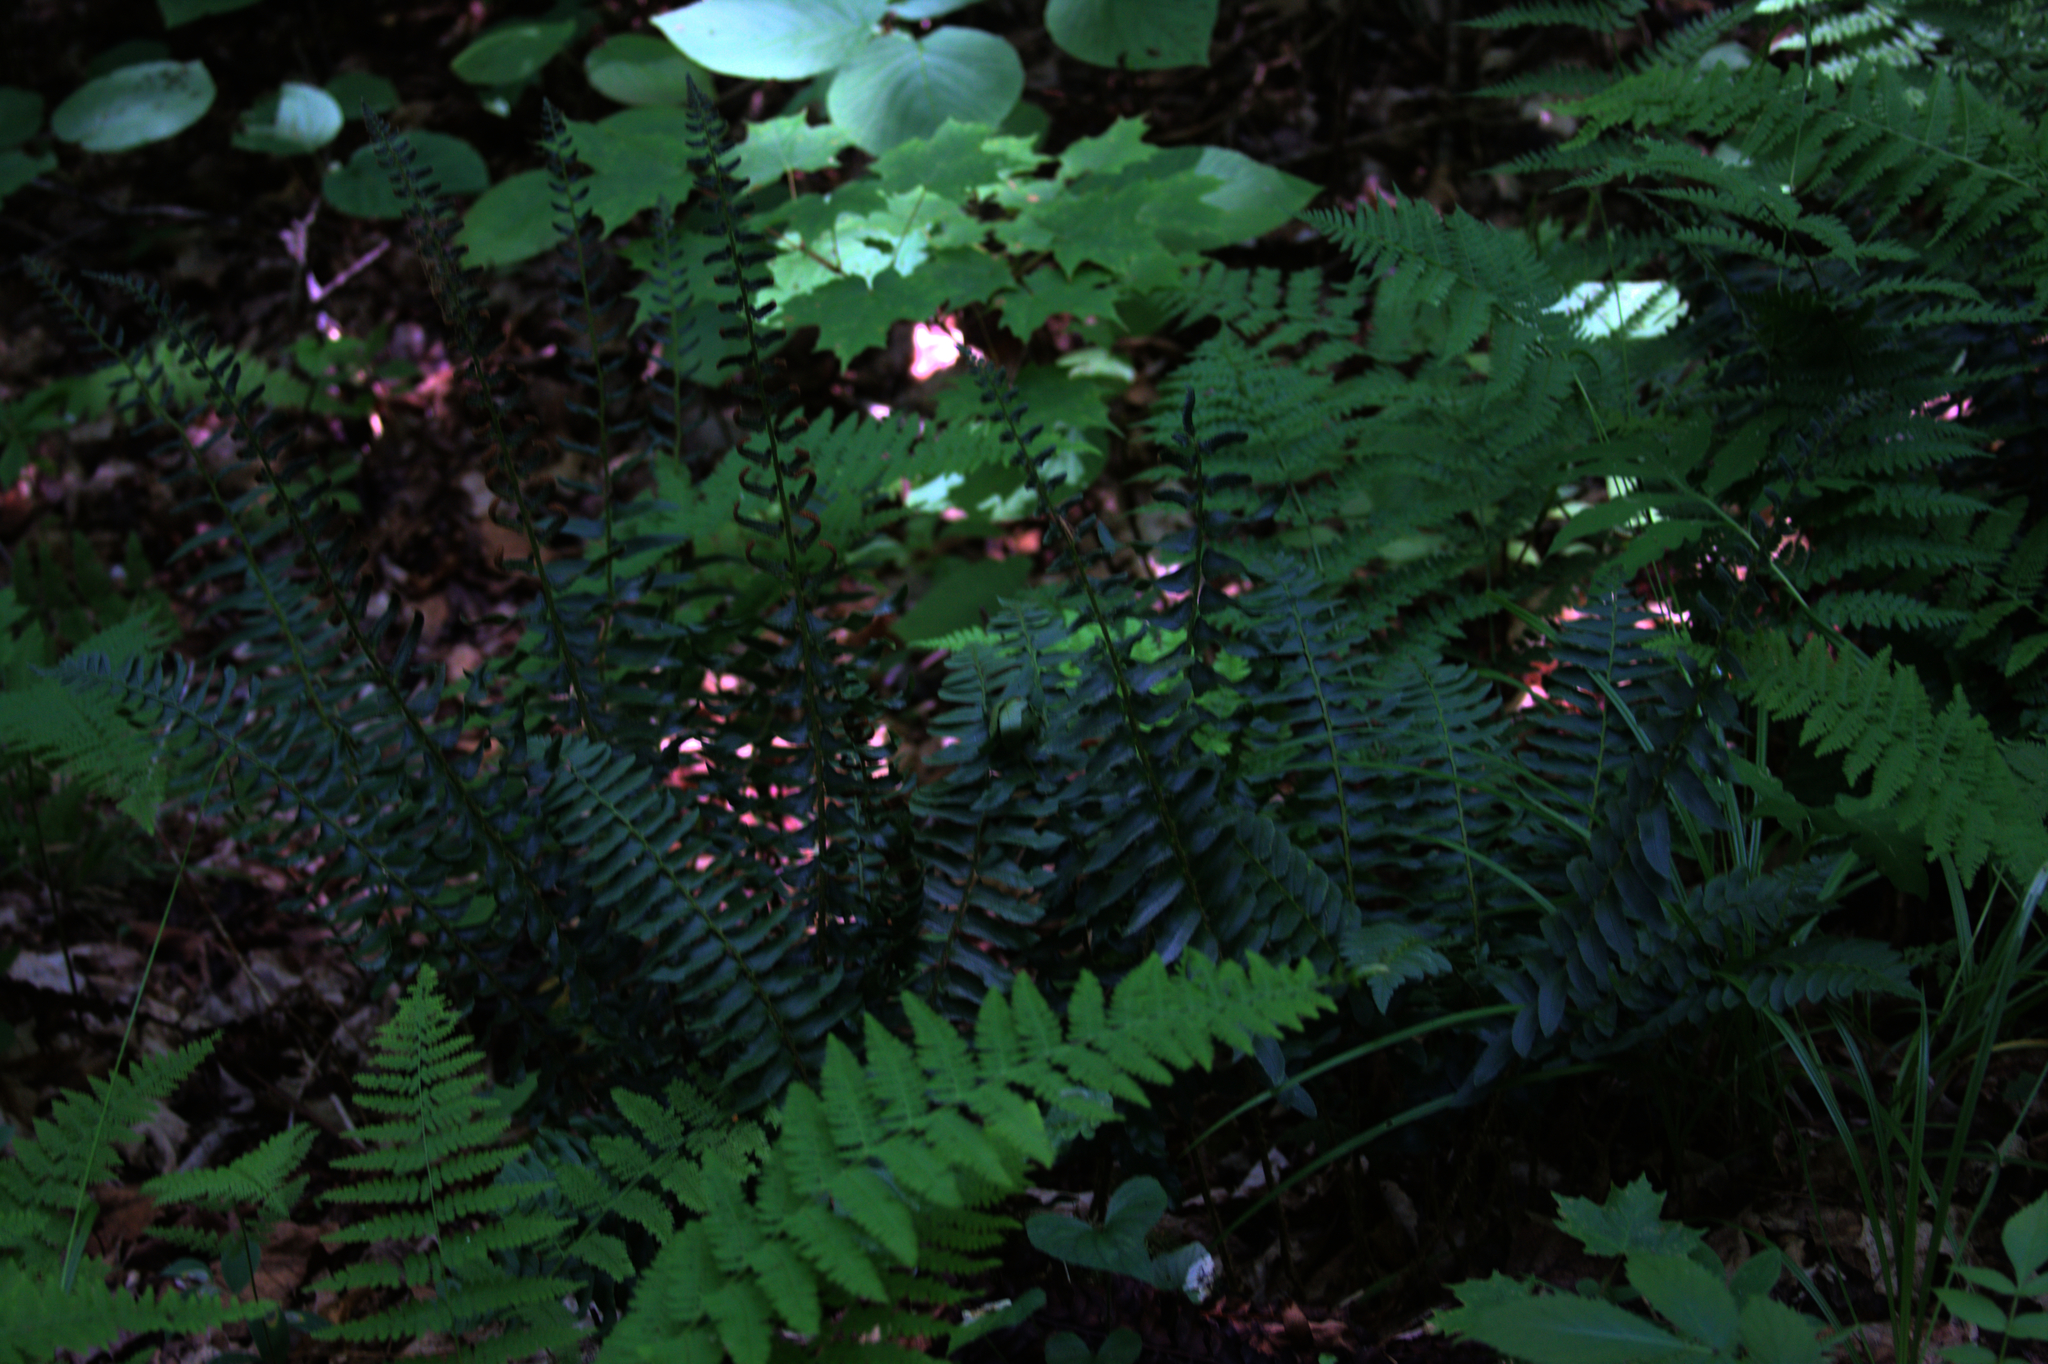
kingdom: Plantae
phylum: Tracheophyta
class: Polypodiopsida
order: Polypodiales
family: Dryopteridaceae
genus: Polystichum
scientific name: Polystichum acrostichoides
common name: Christmas fern
